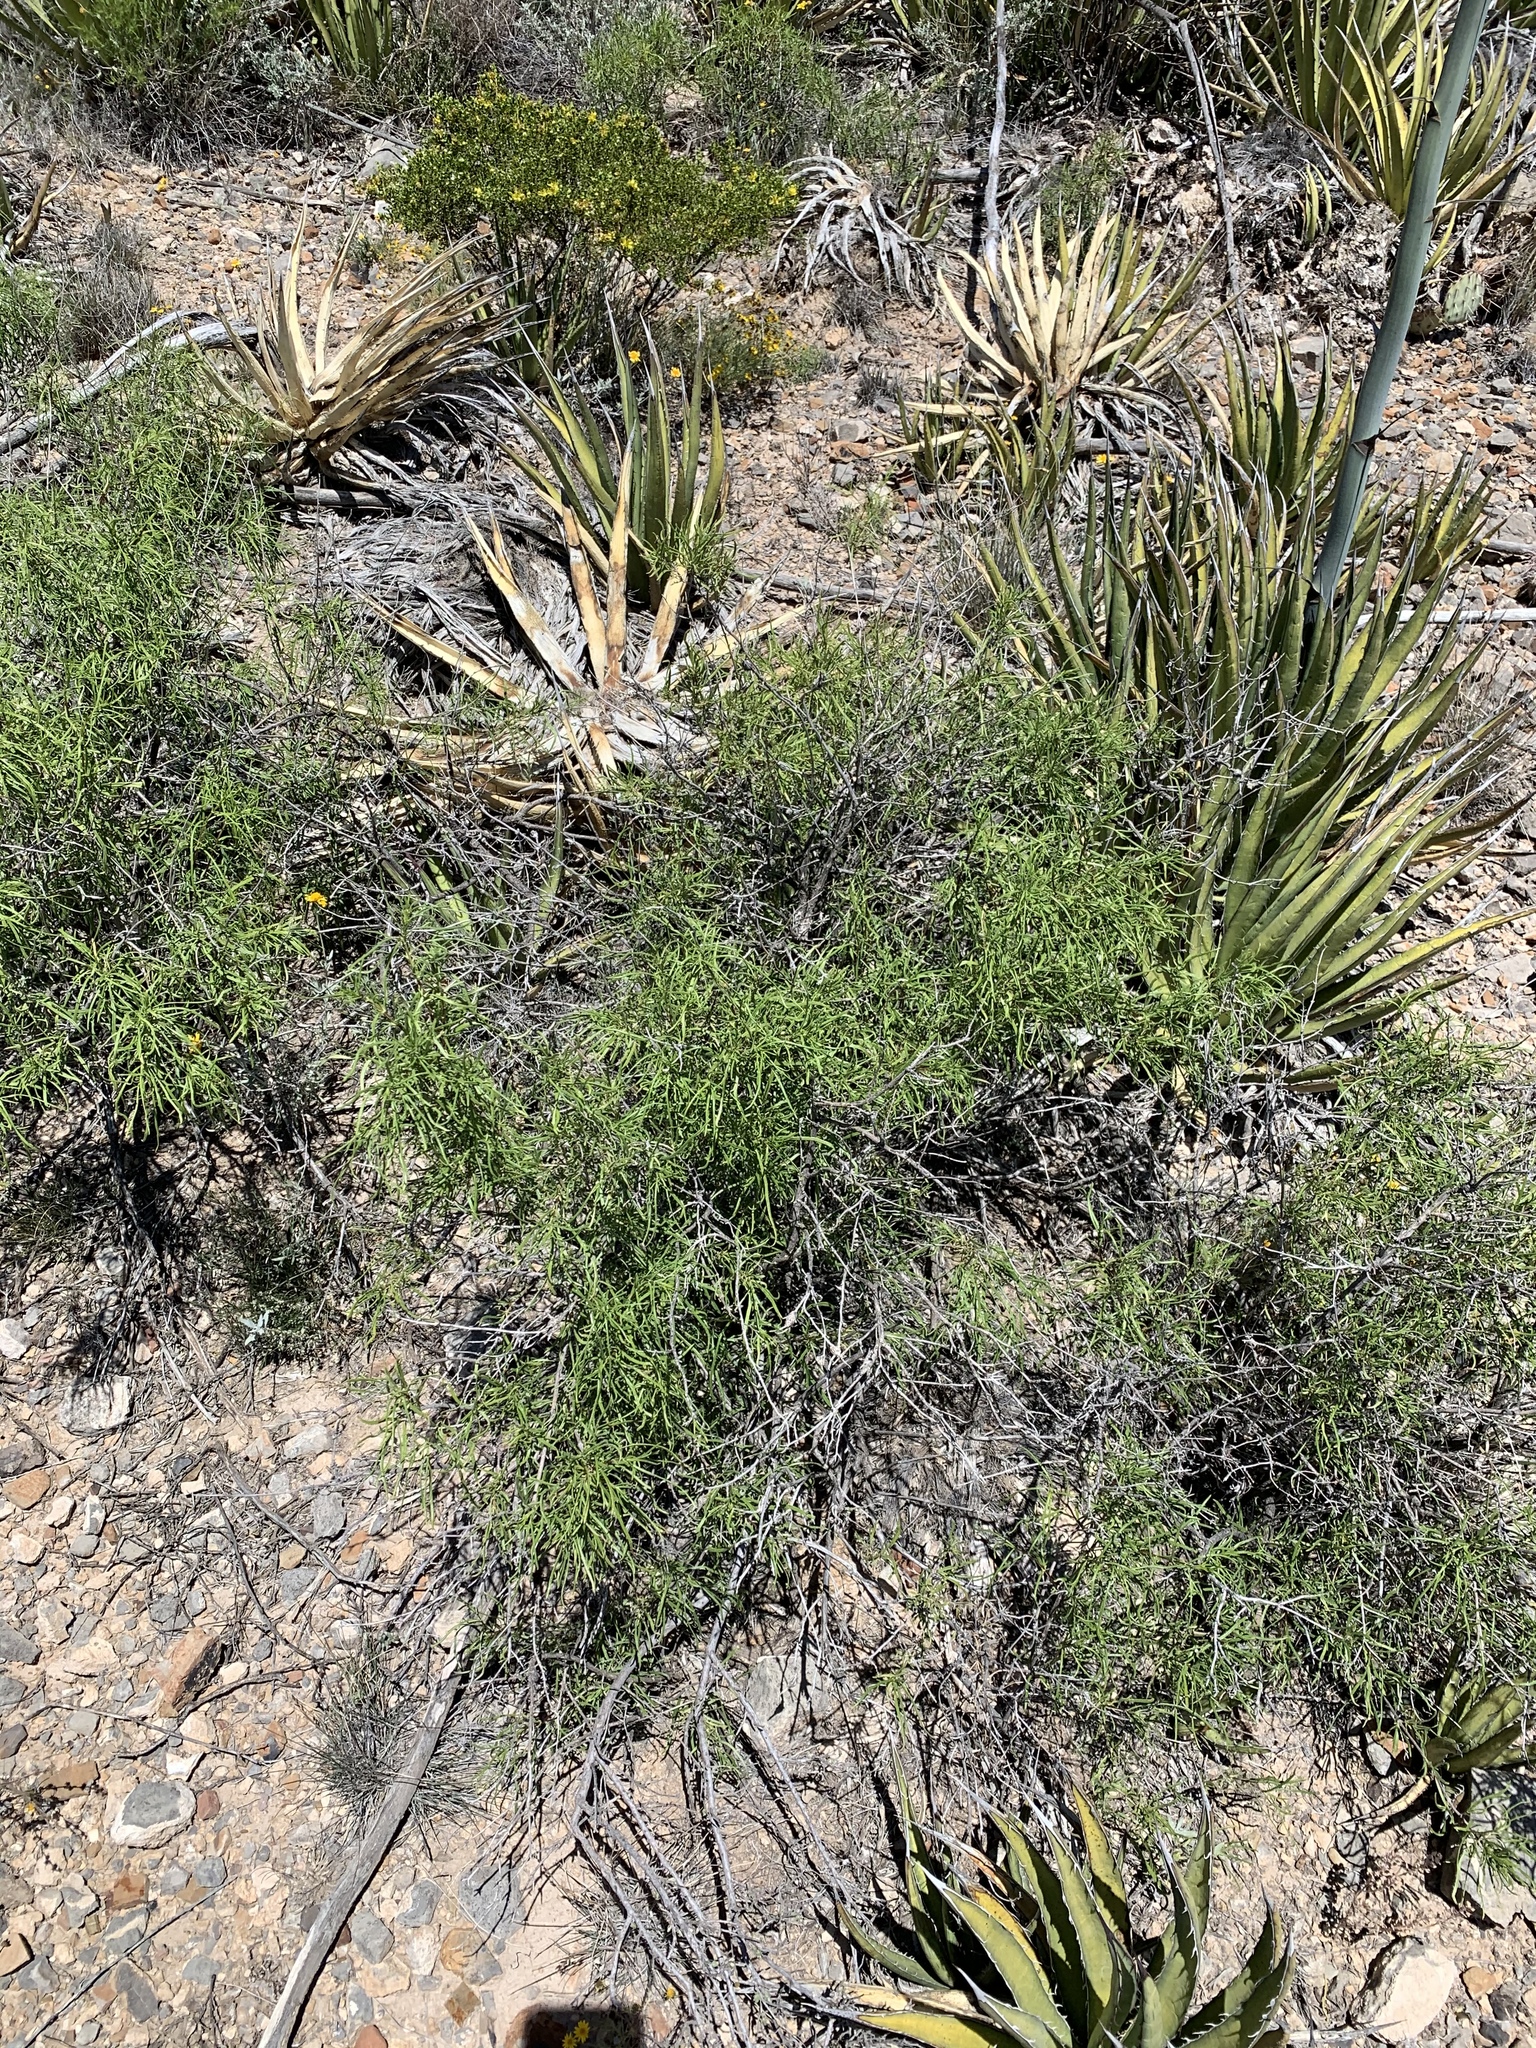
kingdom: Plantae
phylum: Tracheophyta
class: Magnoliopsida
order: Asterales
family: Asteraceae
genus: Sidneya
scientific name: Sidneya tenuifolia
